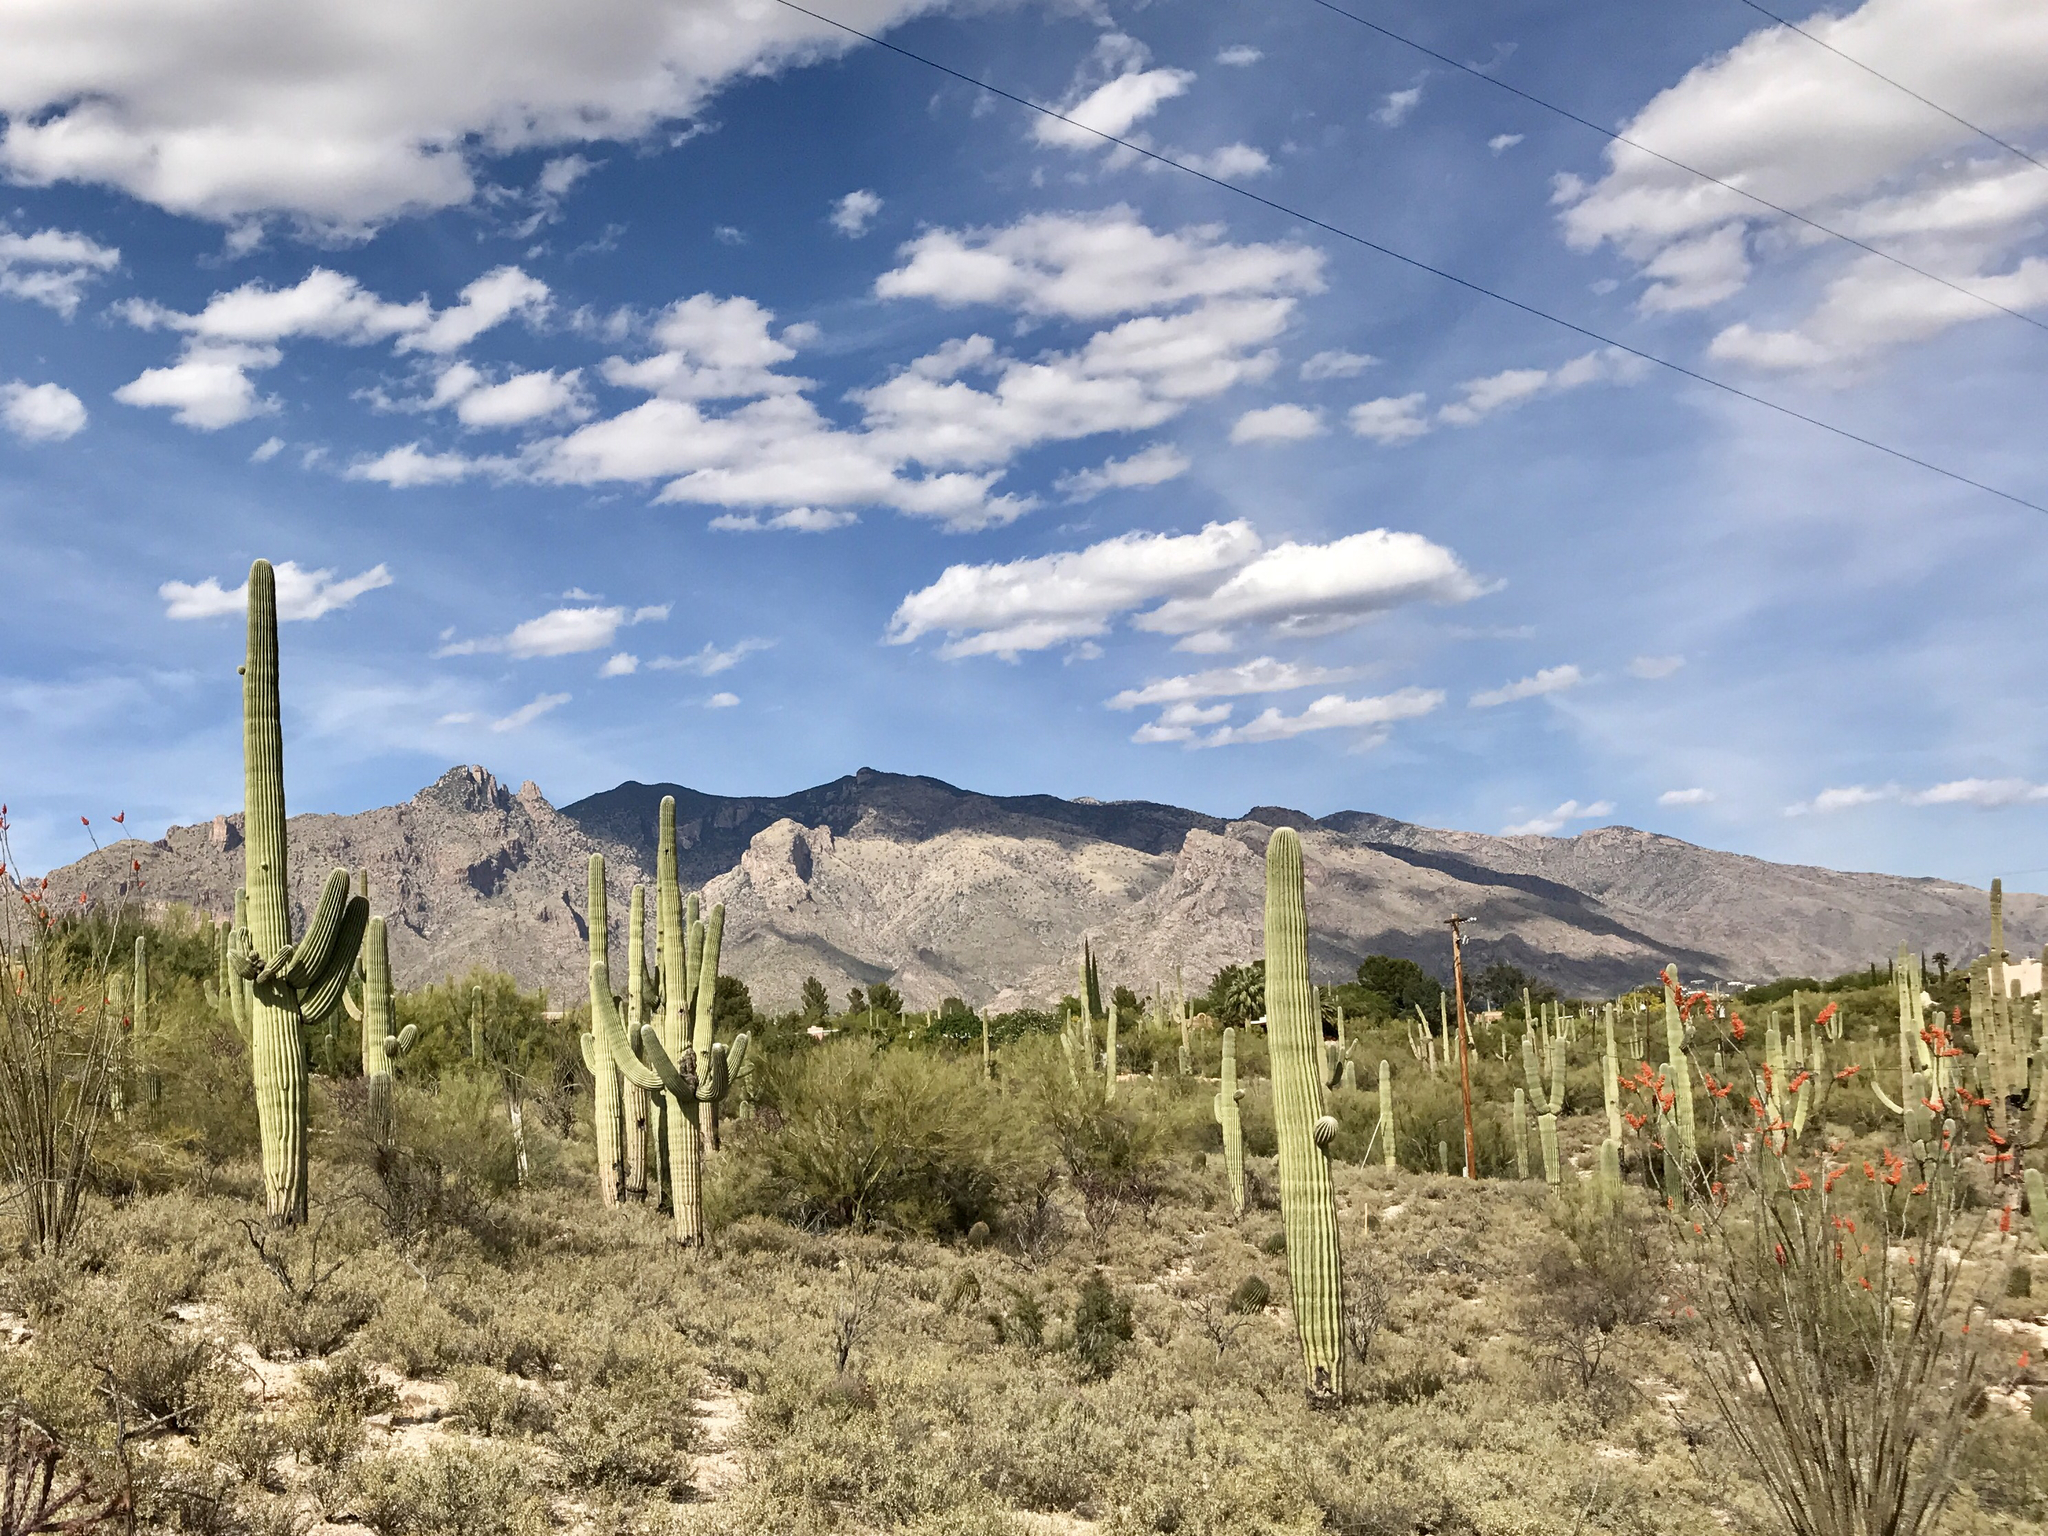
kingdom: Plantae
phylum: Tracheophyta
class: Magnoliopsida
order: Caryophyllales
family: Cactaceae
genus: Carnegiea
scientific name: Carnegiea gigantea
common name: Saguaro
